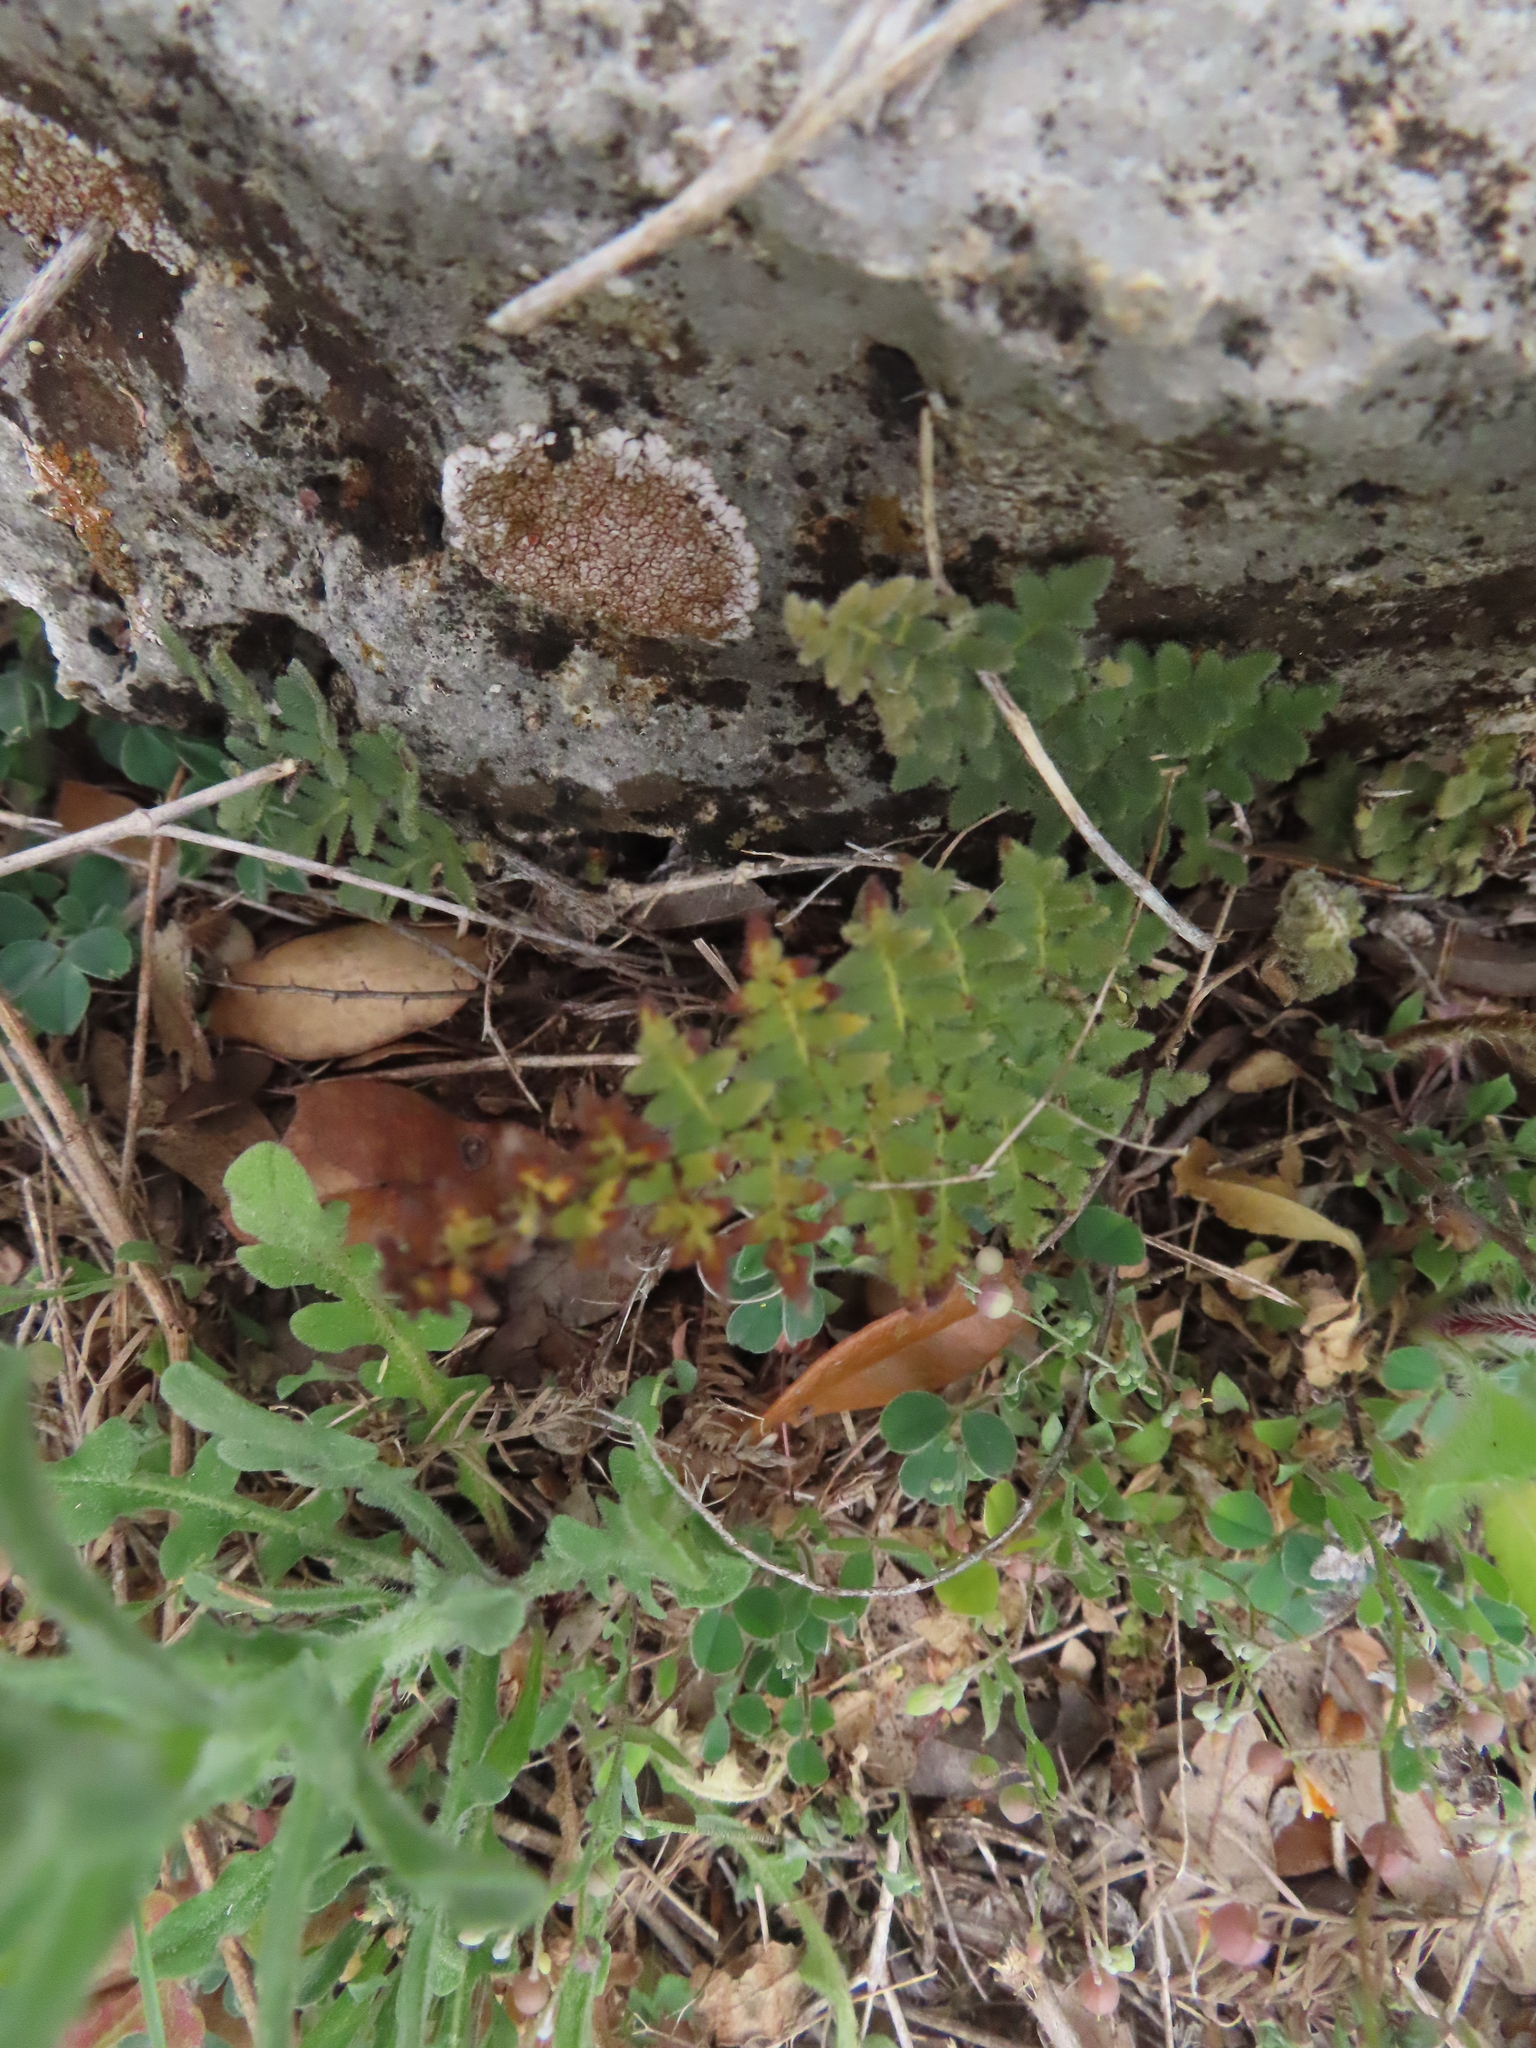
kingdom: Plantae
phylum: Tracheophyta
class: Polypodiopsida
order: Polypodiales
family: Pteridaceae
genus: Myriopteris
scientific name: Myriopteris scabra
